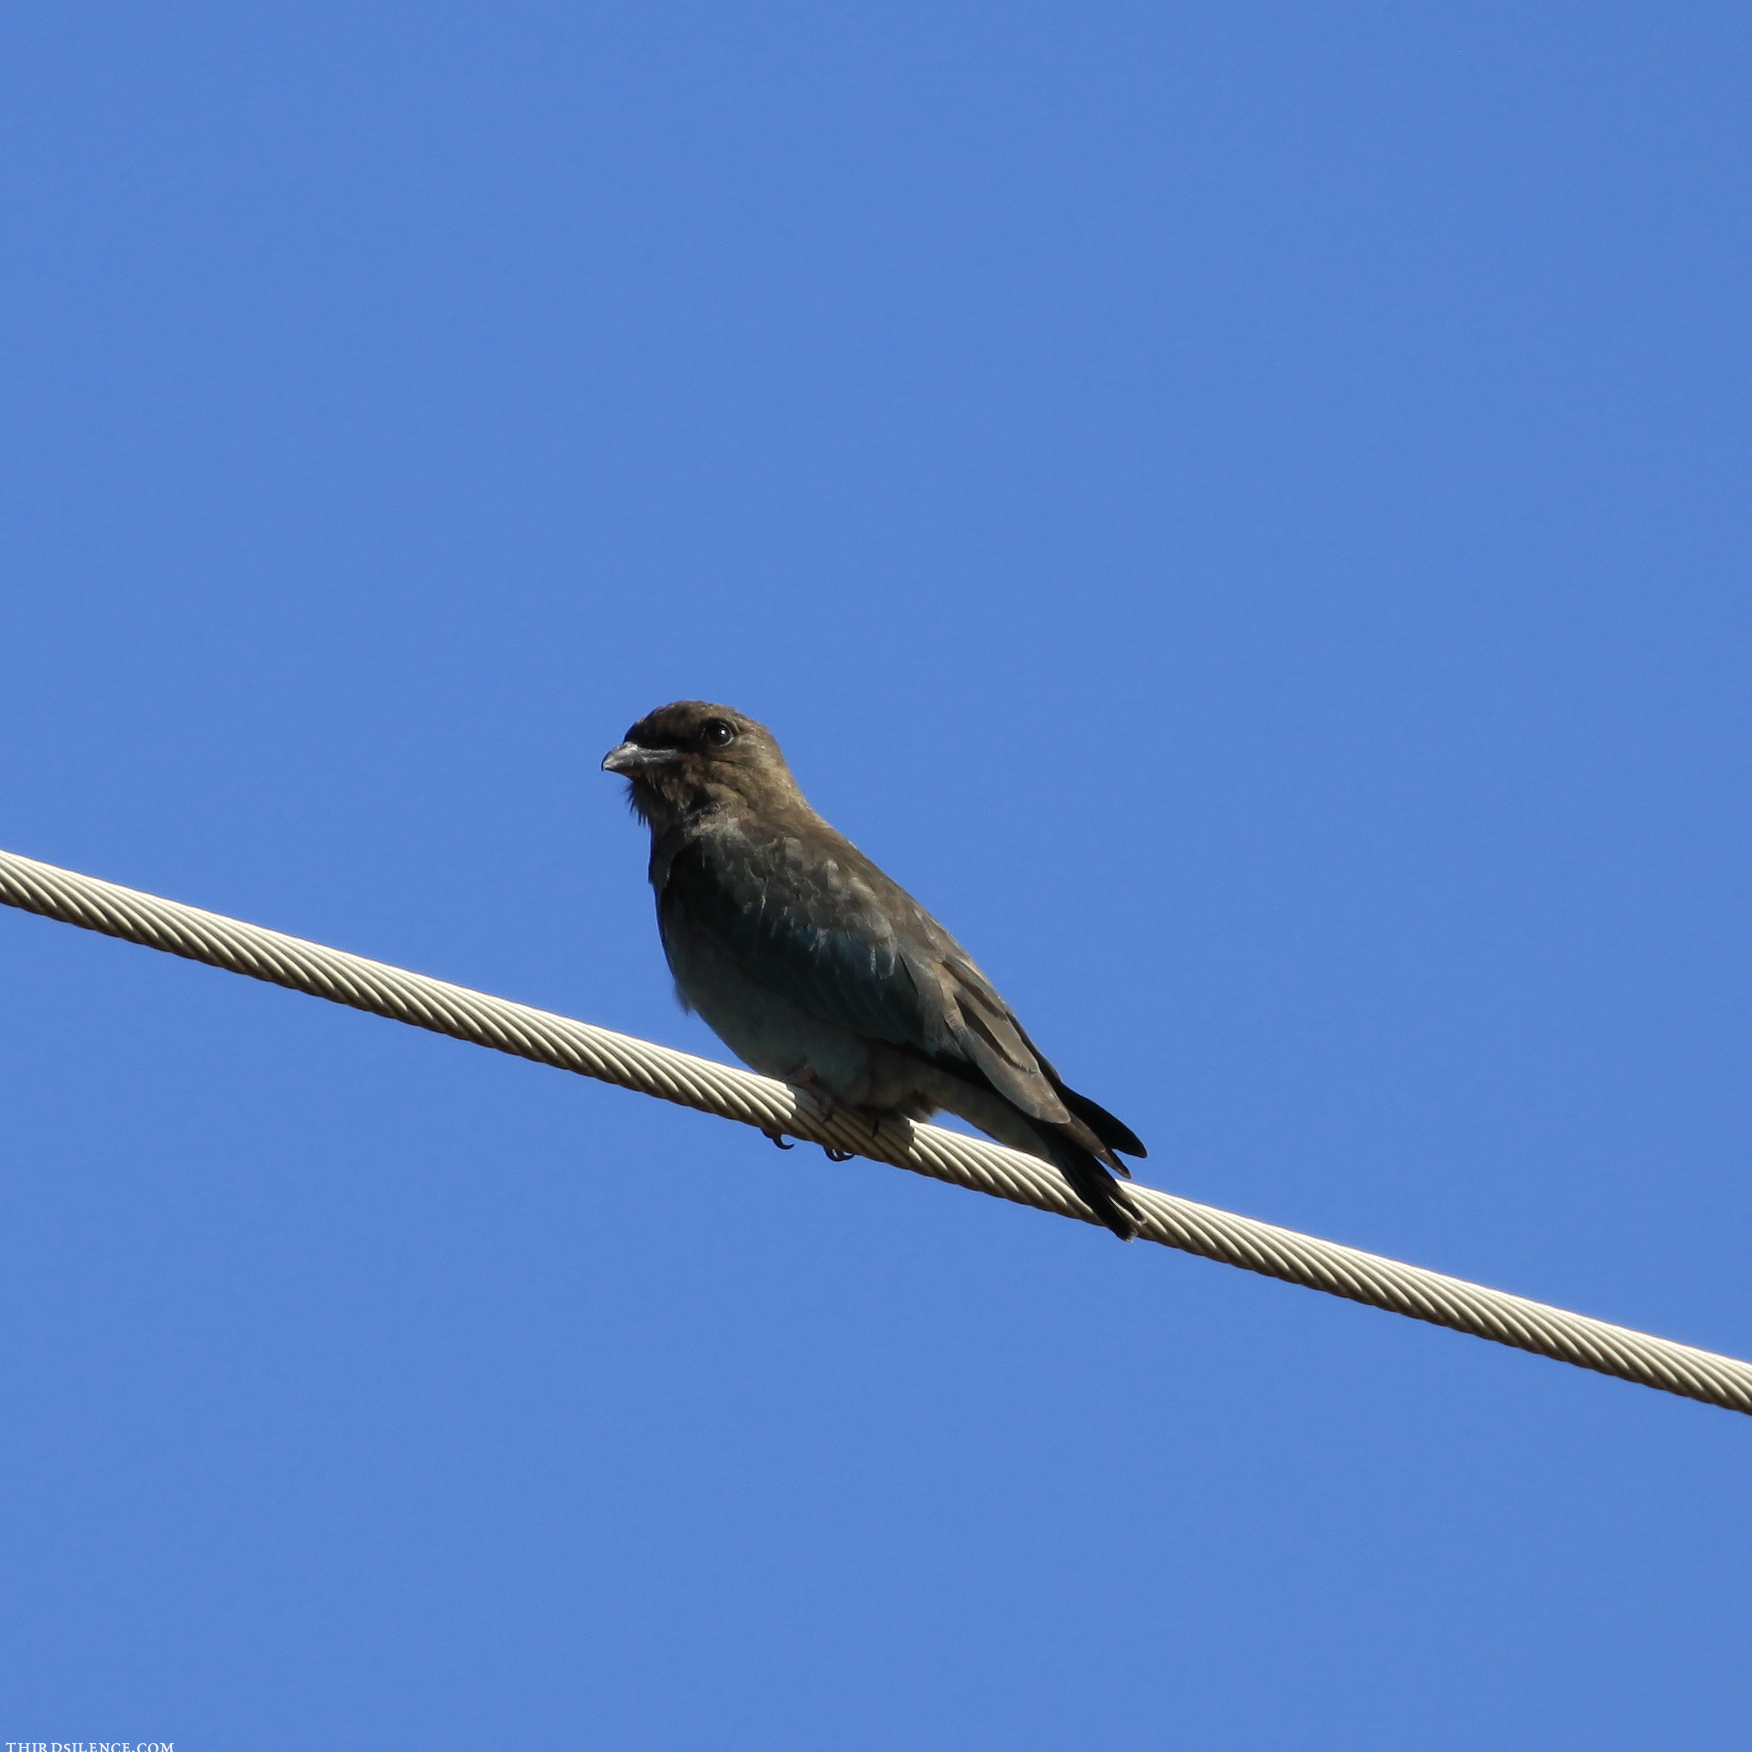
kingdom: Animalia
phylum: Chordata
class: Aves
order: Coraciiformes
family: Coraciidae
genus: Eurystomus
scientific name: Eurystomus orientalis
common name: Oriental dollarbird
